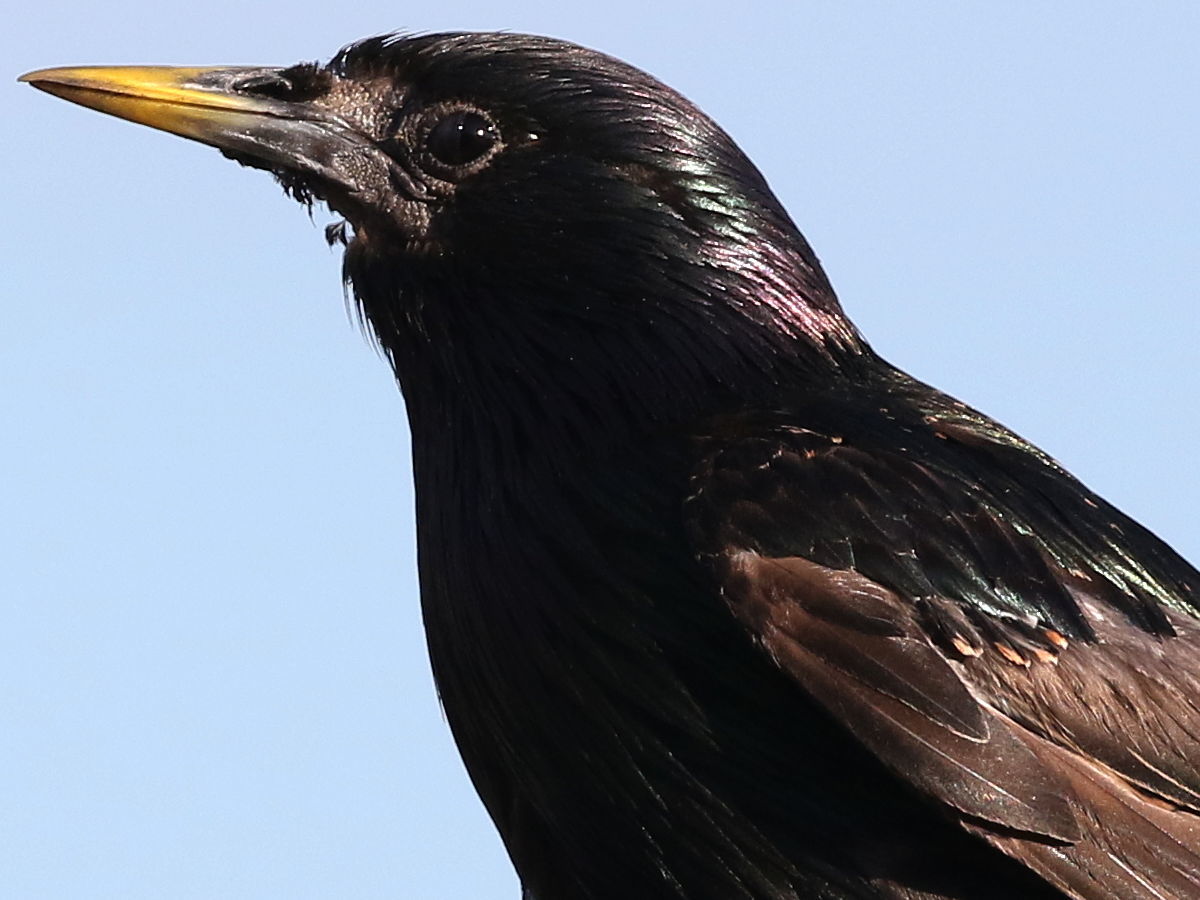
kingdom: Animalia
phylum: Chordata
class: Aves
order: Passeriformes
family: Sturnidae
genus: Sturnus
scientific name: Sturnus vulgaris
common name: Common starling
